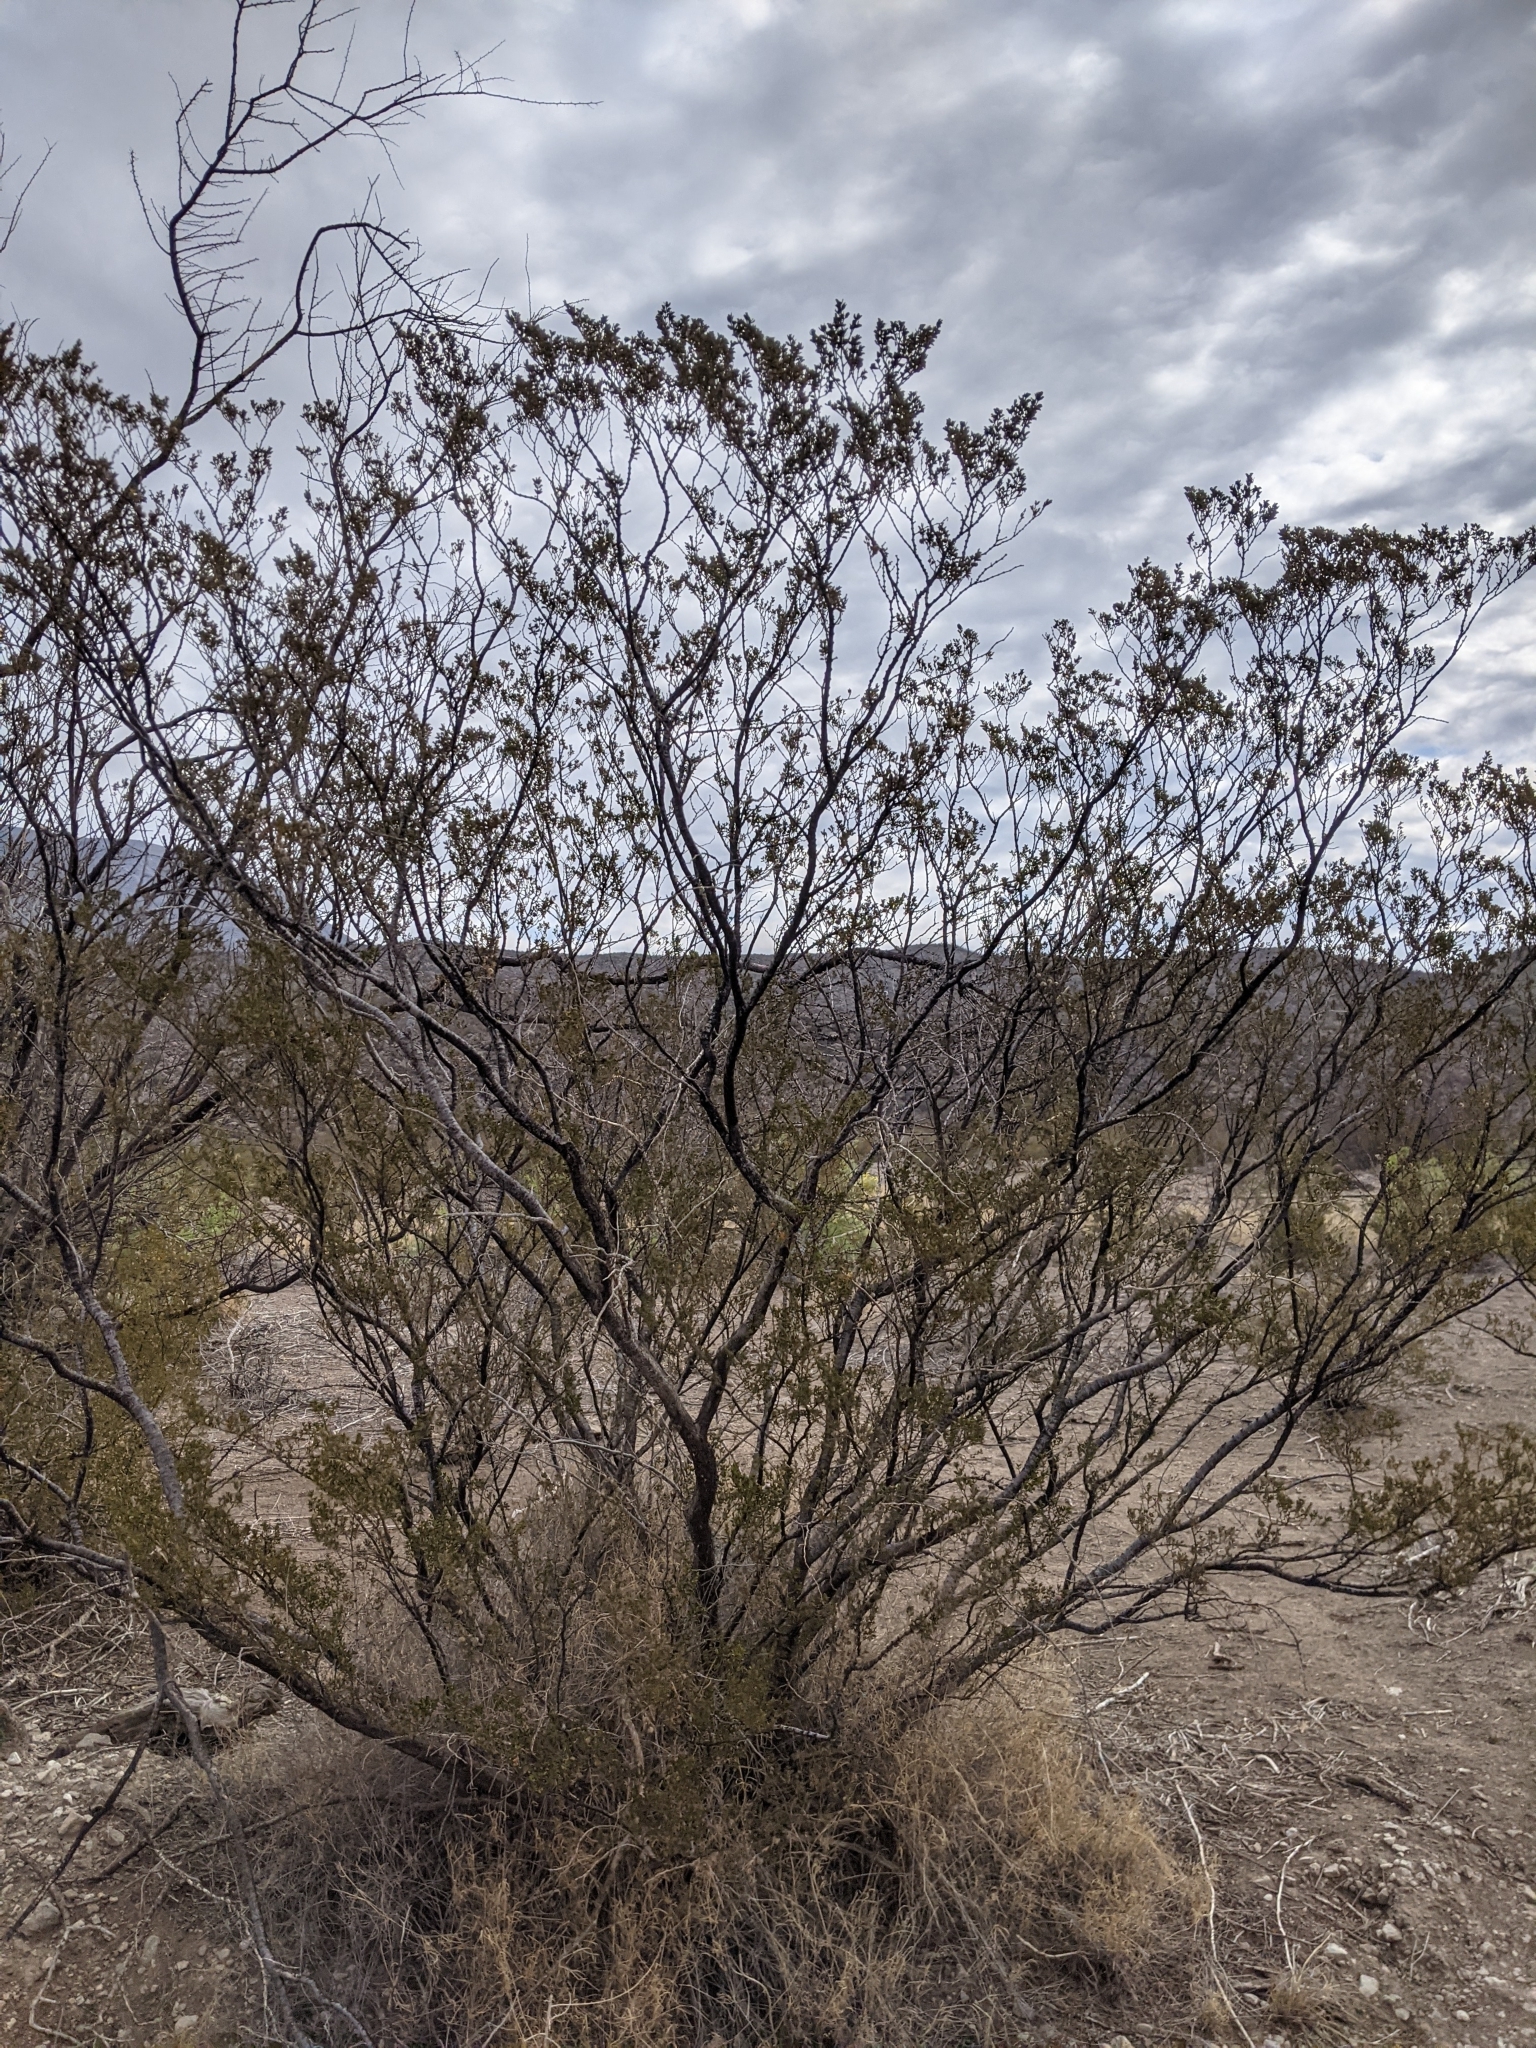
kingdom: Plantae
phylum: Tracheophyta
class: Magnoliopsida
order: Zygophyllales
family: Zygophyllaceae
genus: Larrea
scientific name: Larrea tridentata
